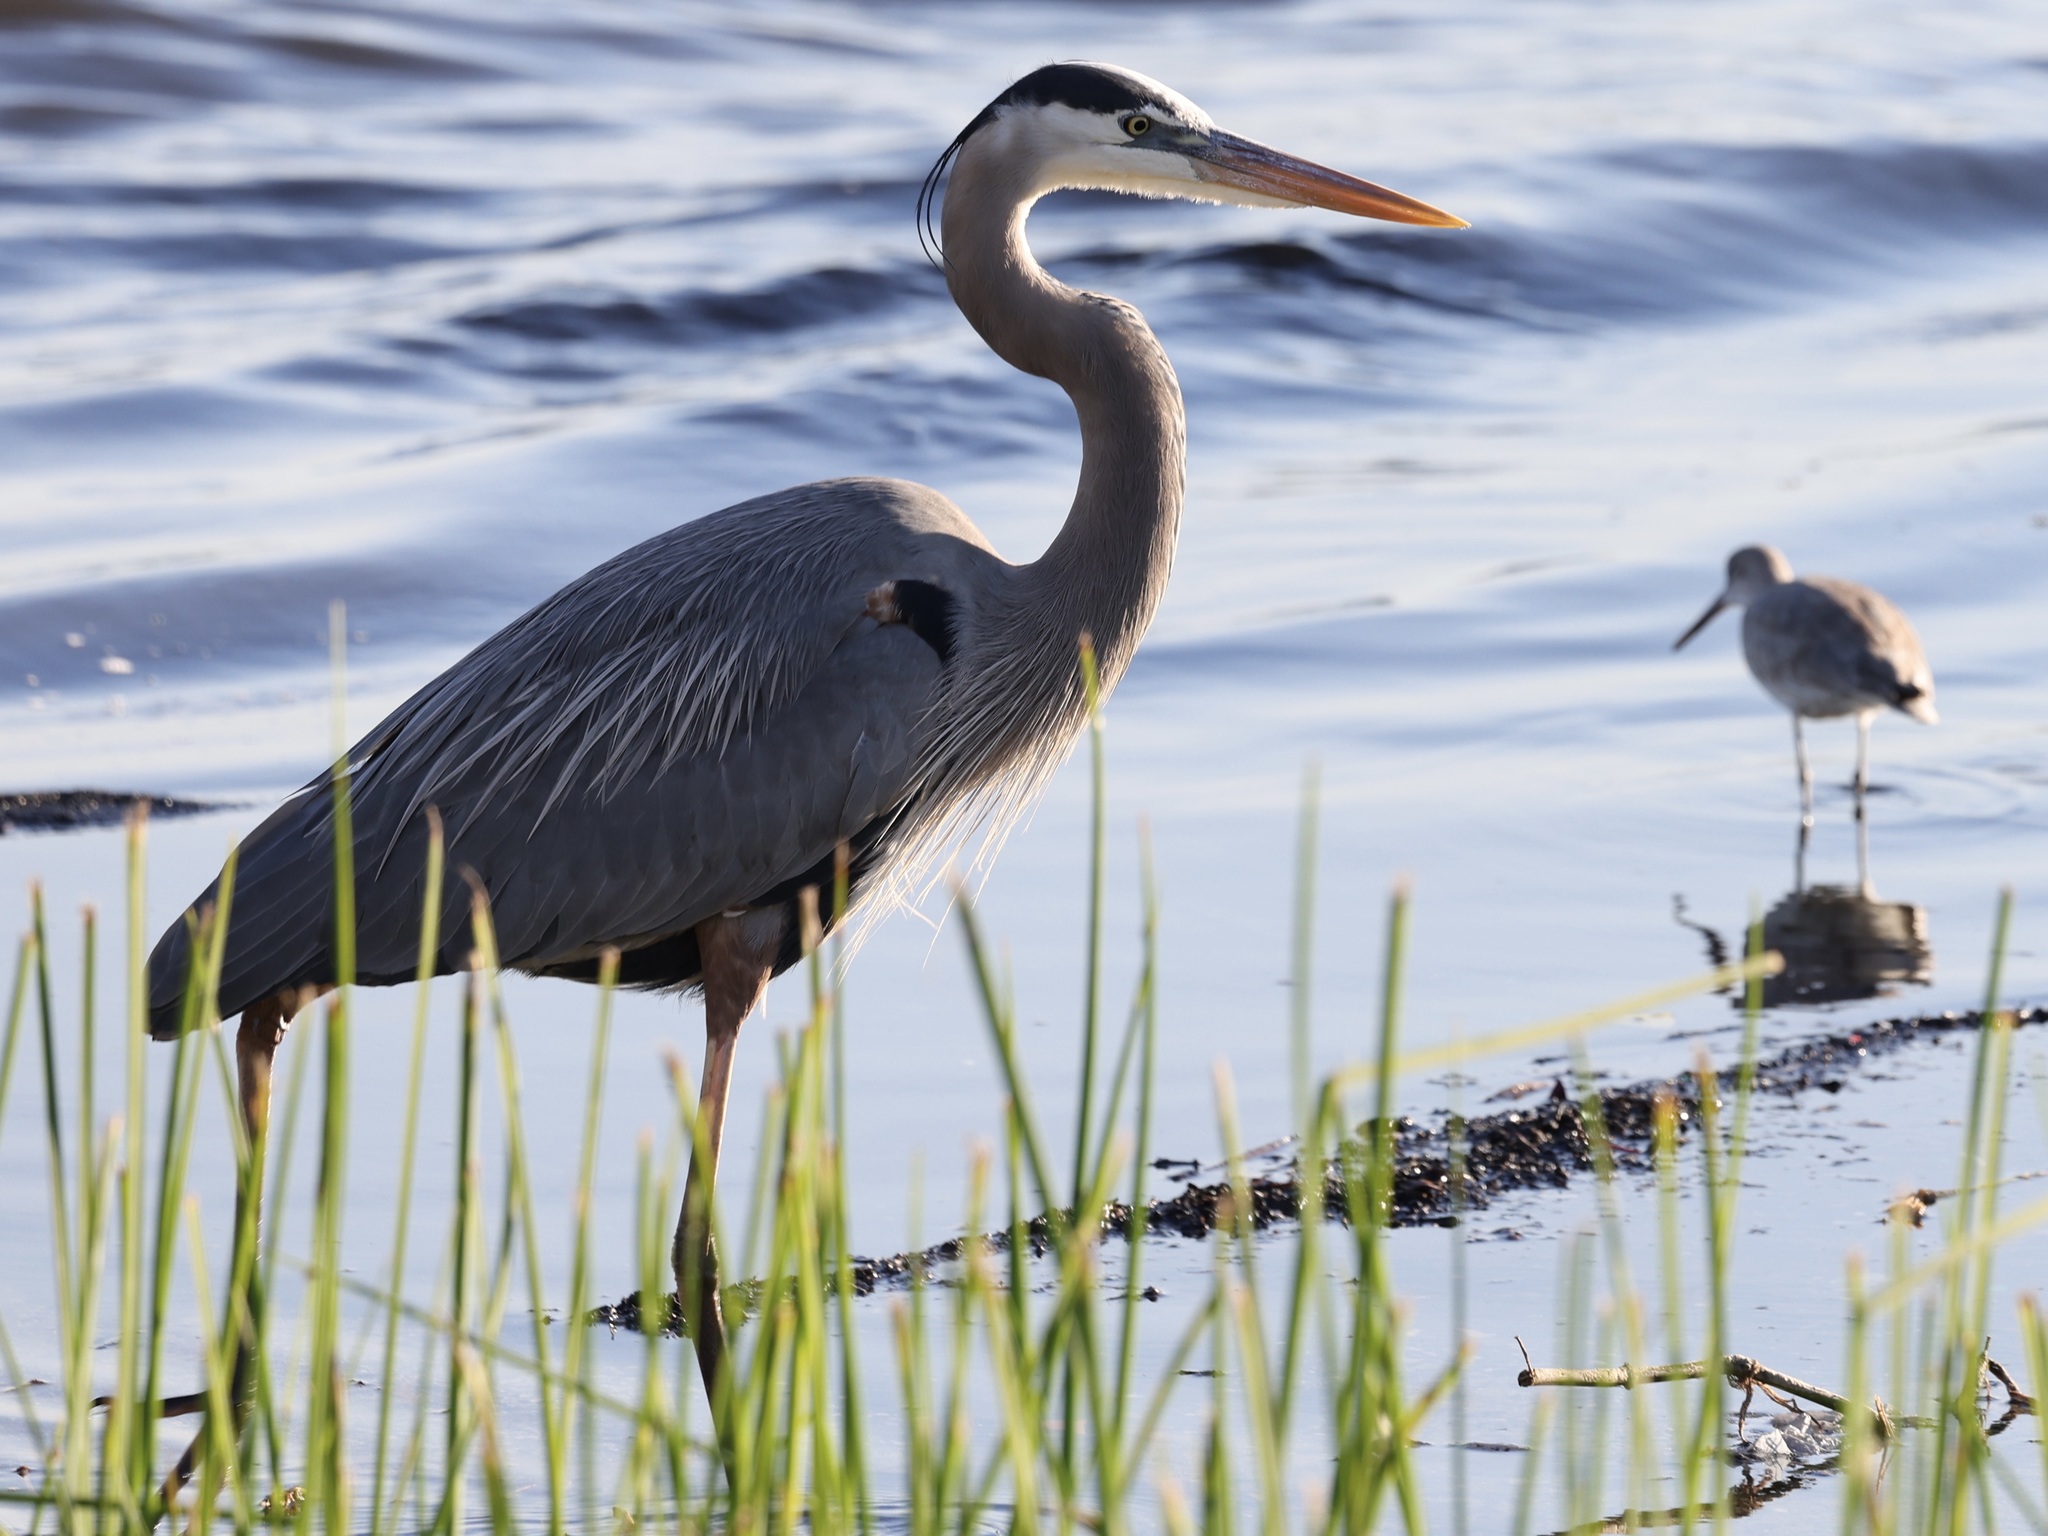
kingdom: Animalia
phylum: Chordata
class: Aves
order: Pelecaniformes
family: Ardeidae
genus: Ardea
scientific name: Ardea herodias
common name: Great blue heron
